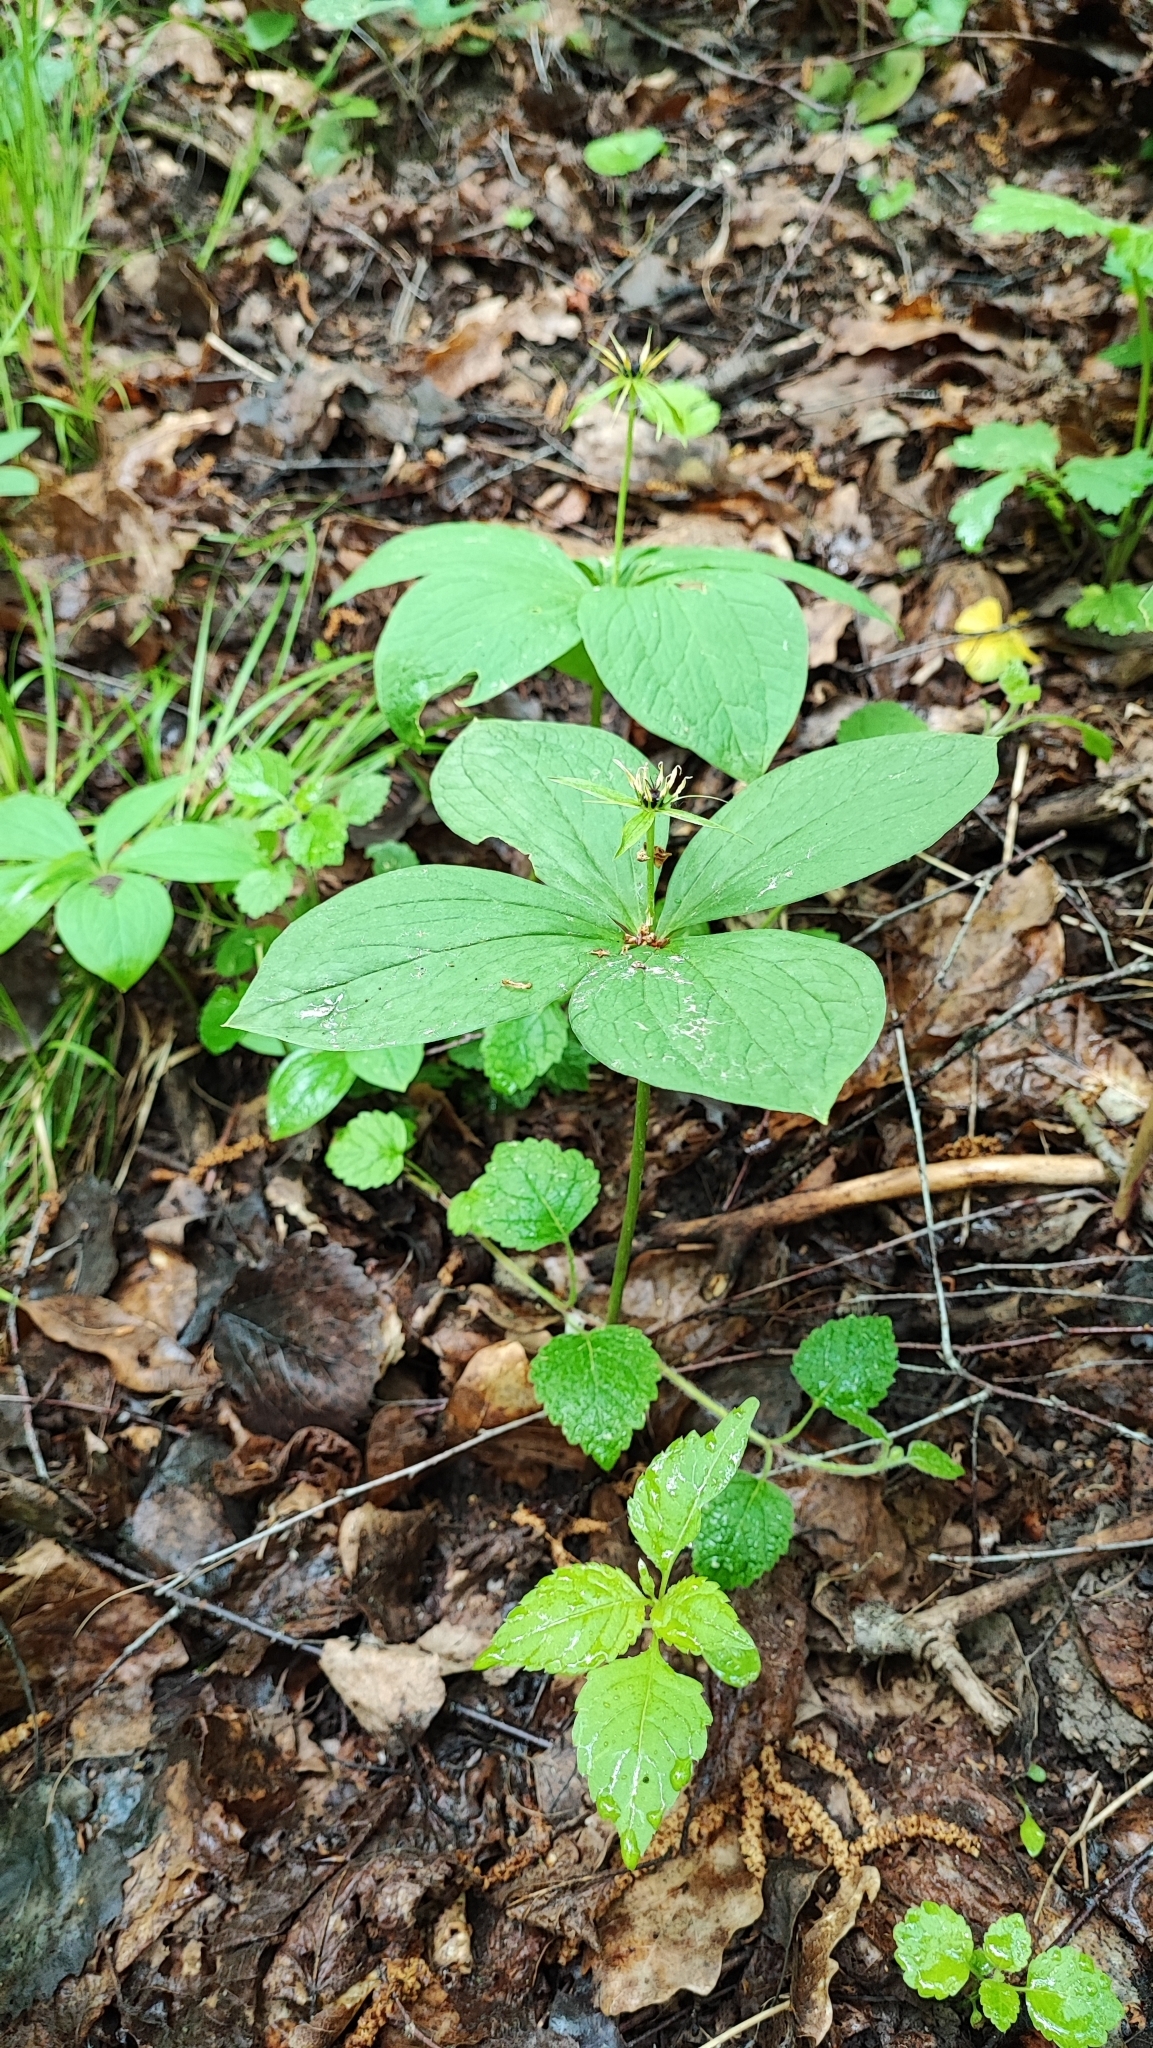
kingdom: Plantae
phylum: Tracheophyta
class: Liliopsida
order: Liliales
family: Melanthiaceae
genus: Paris
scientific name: Paris quadrifolia
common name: Herb-paris
